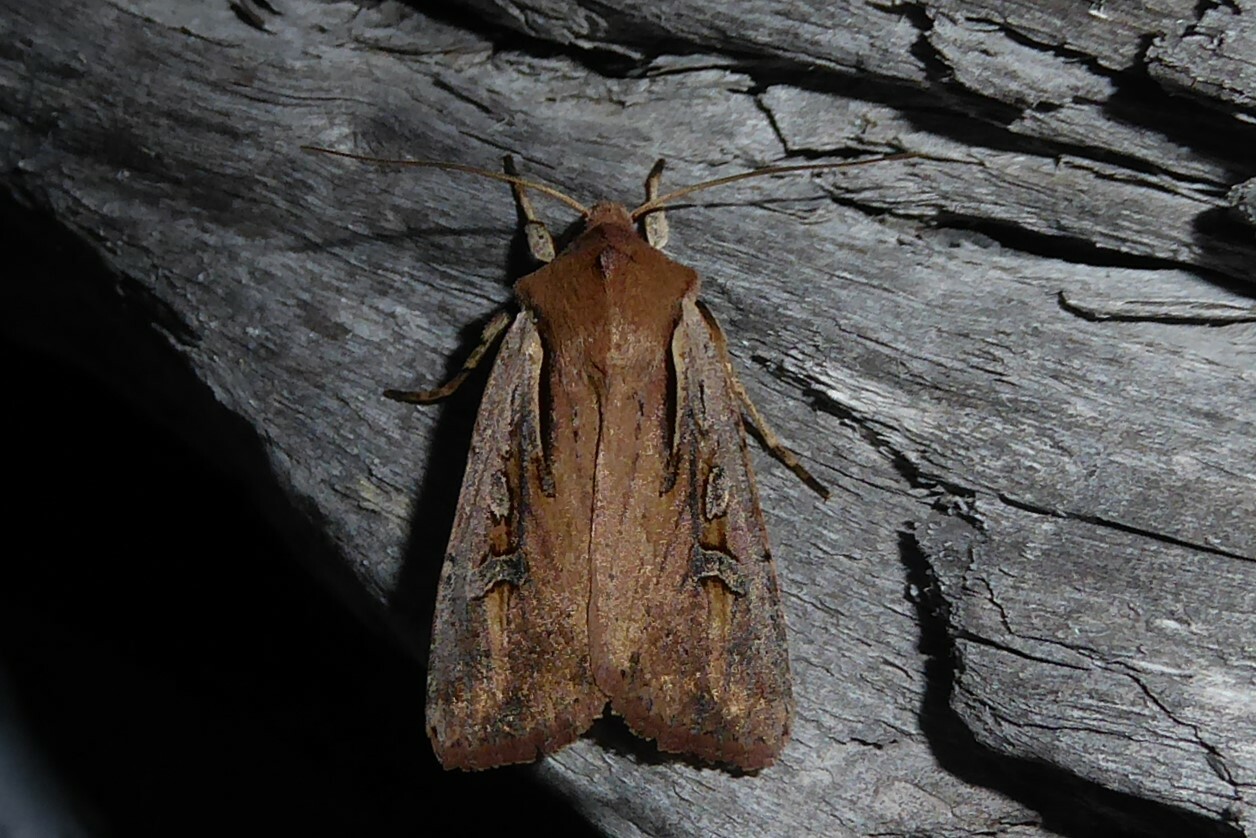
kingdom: Animalia
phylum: Arthropoda
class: Insecta
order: Lepidoptera
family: Noctuidae
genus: Ichneutica
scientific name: Ichneutica atristriga
